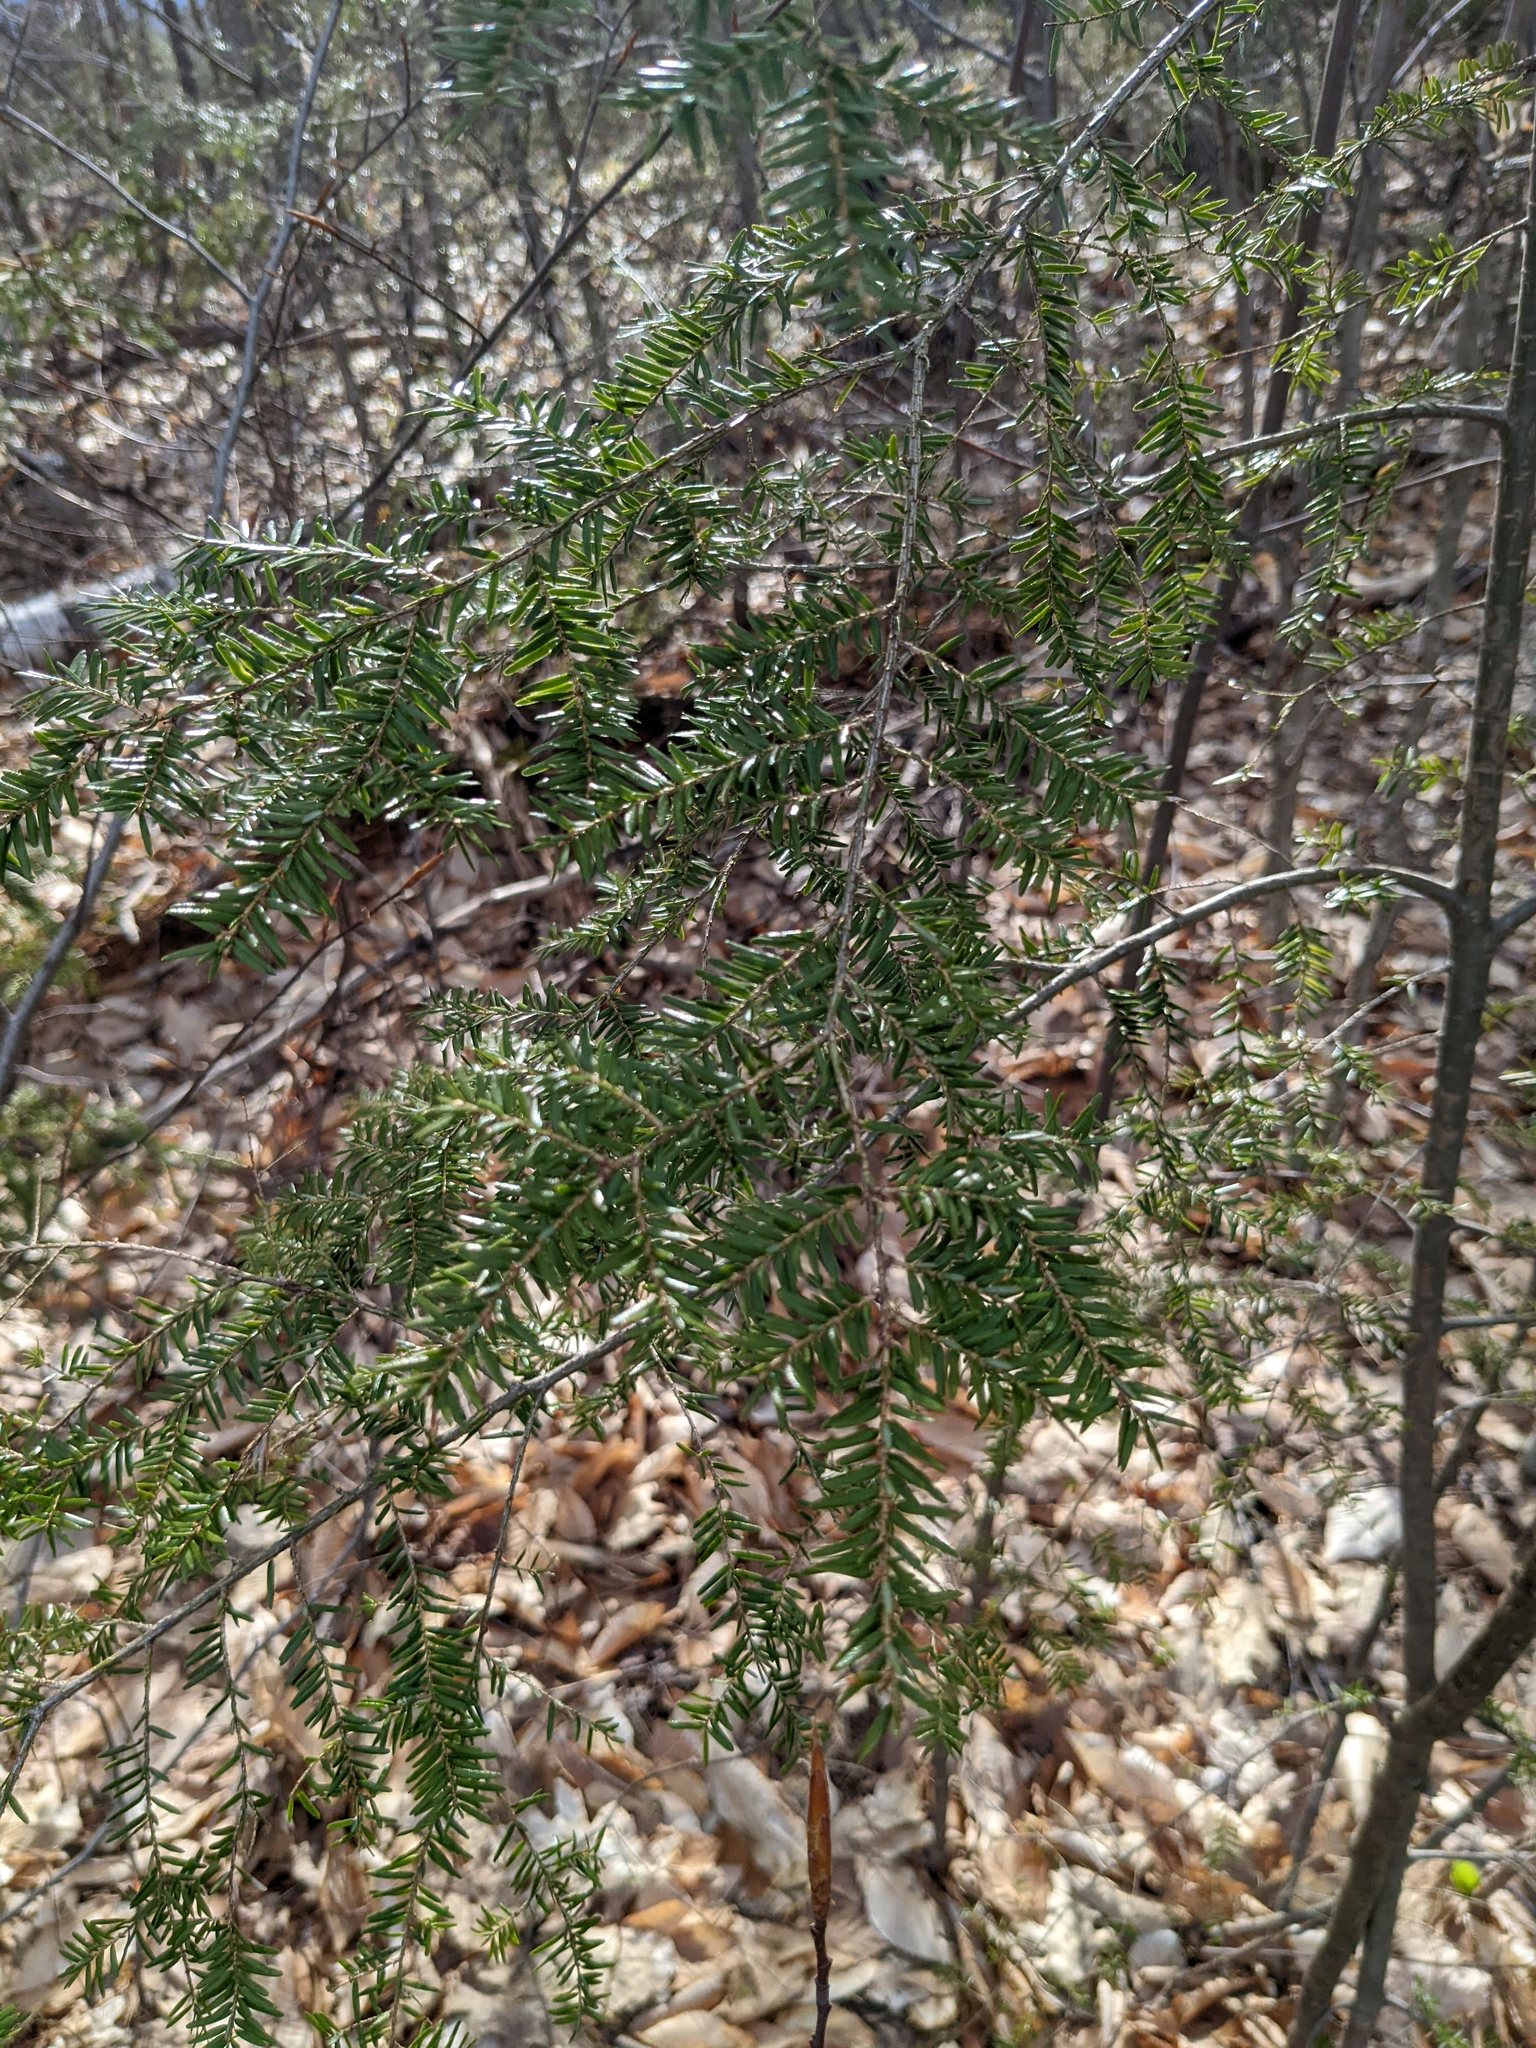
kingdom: Plantae
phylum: Tracheophyta
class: Pinopsida
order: Pinales
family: Pinaceae
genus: Tsuga
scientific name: Tsuga canadensis
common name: Eastern hemlock
